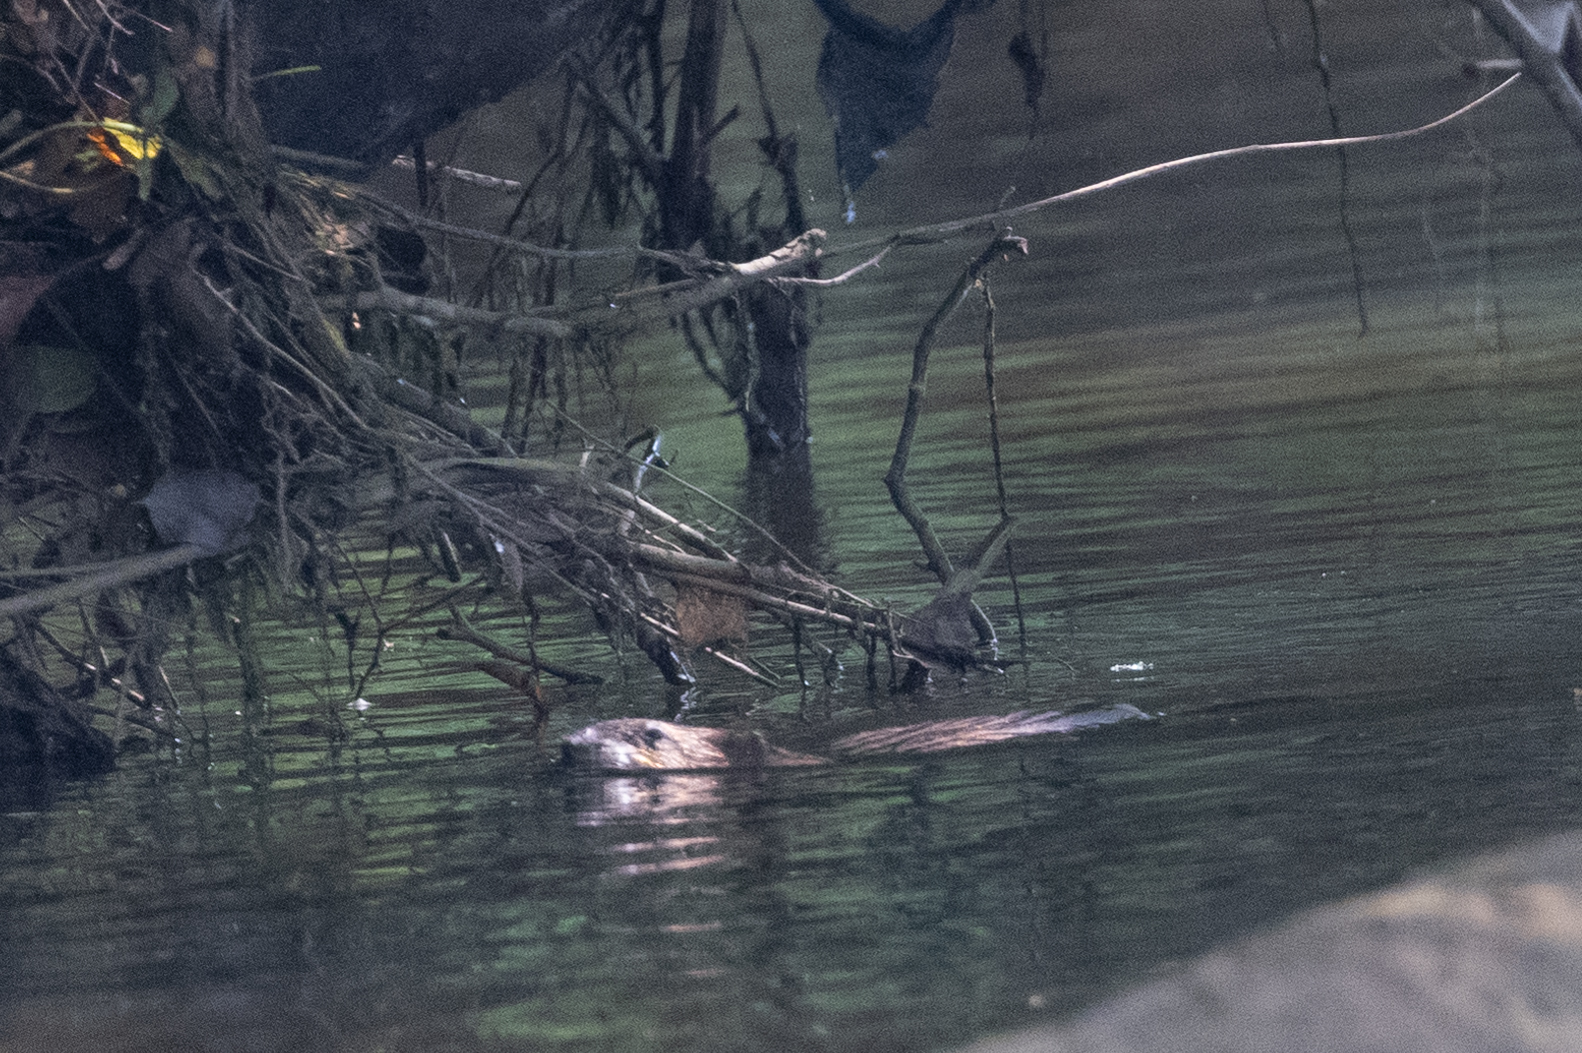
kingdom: Animalia
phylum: Chordata
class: Mammalia
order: Rodentia
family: Cricetidae
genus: Ondatra
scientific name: Ondatra zibethicus
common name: Muskrat
